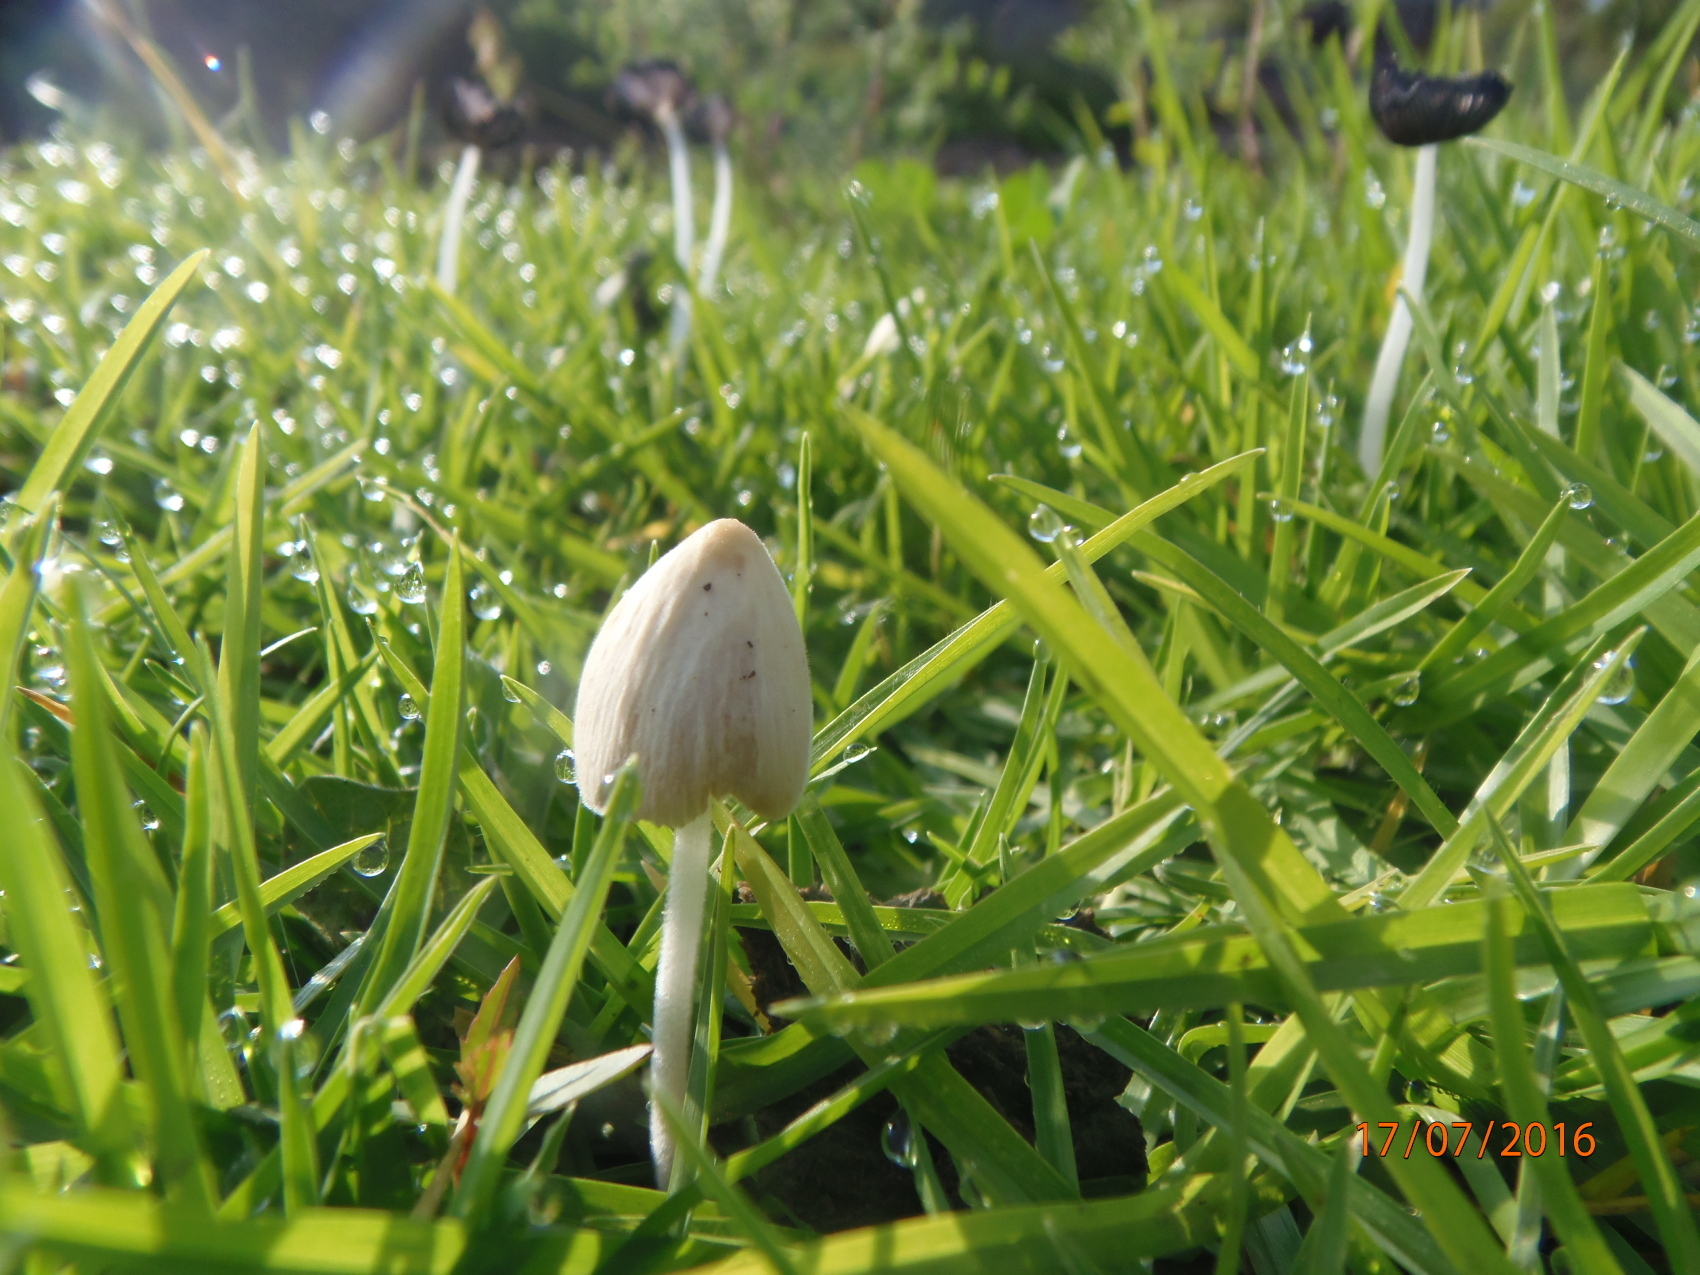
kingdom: Fungi
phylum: Basidiomycota
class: Agaricomycetes
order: Agaricales
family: Bolbitiaceae
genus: Conocybe
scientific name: Conocybe apala
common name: Milky conecap
